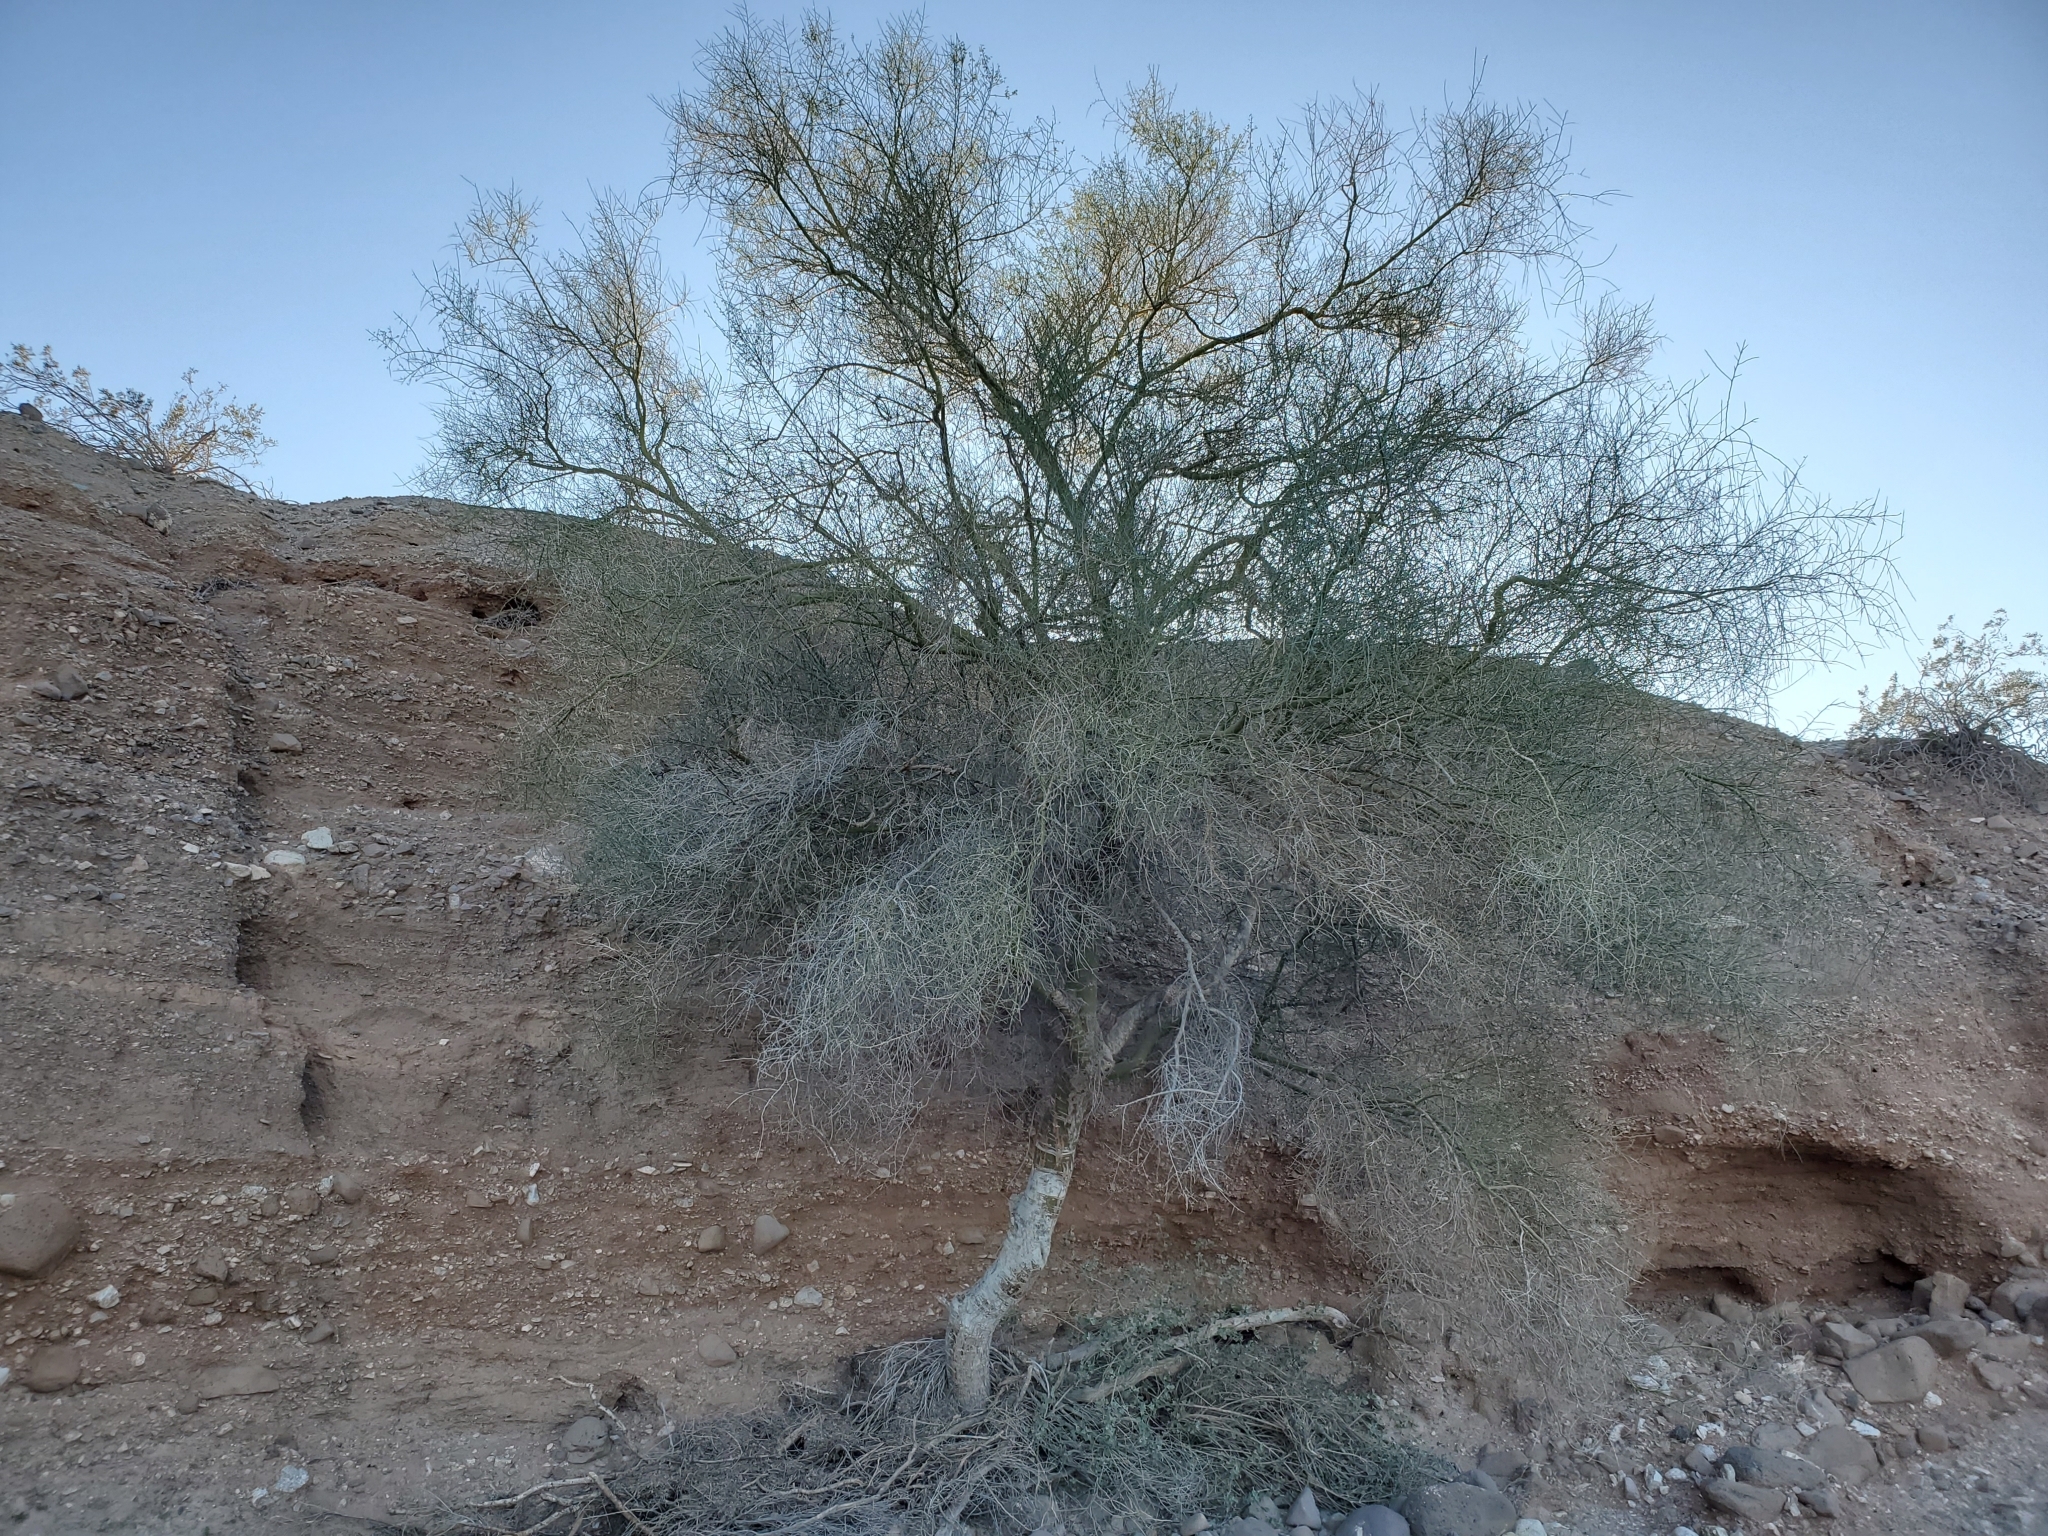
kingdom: Plantae
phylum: Tracheophyta
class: Magnoliopsida
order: Fabales
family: Fabaceae
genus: Parkinsonia
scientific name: Parkinsonia florida
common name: Blue paloverde
